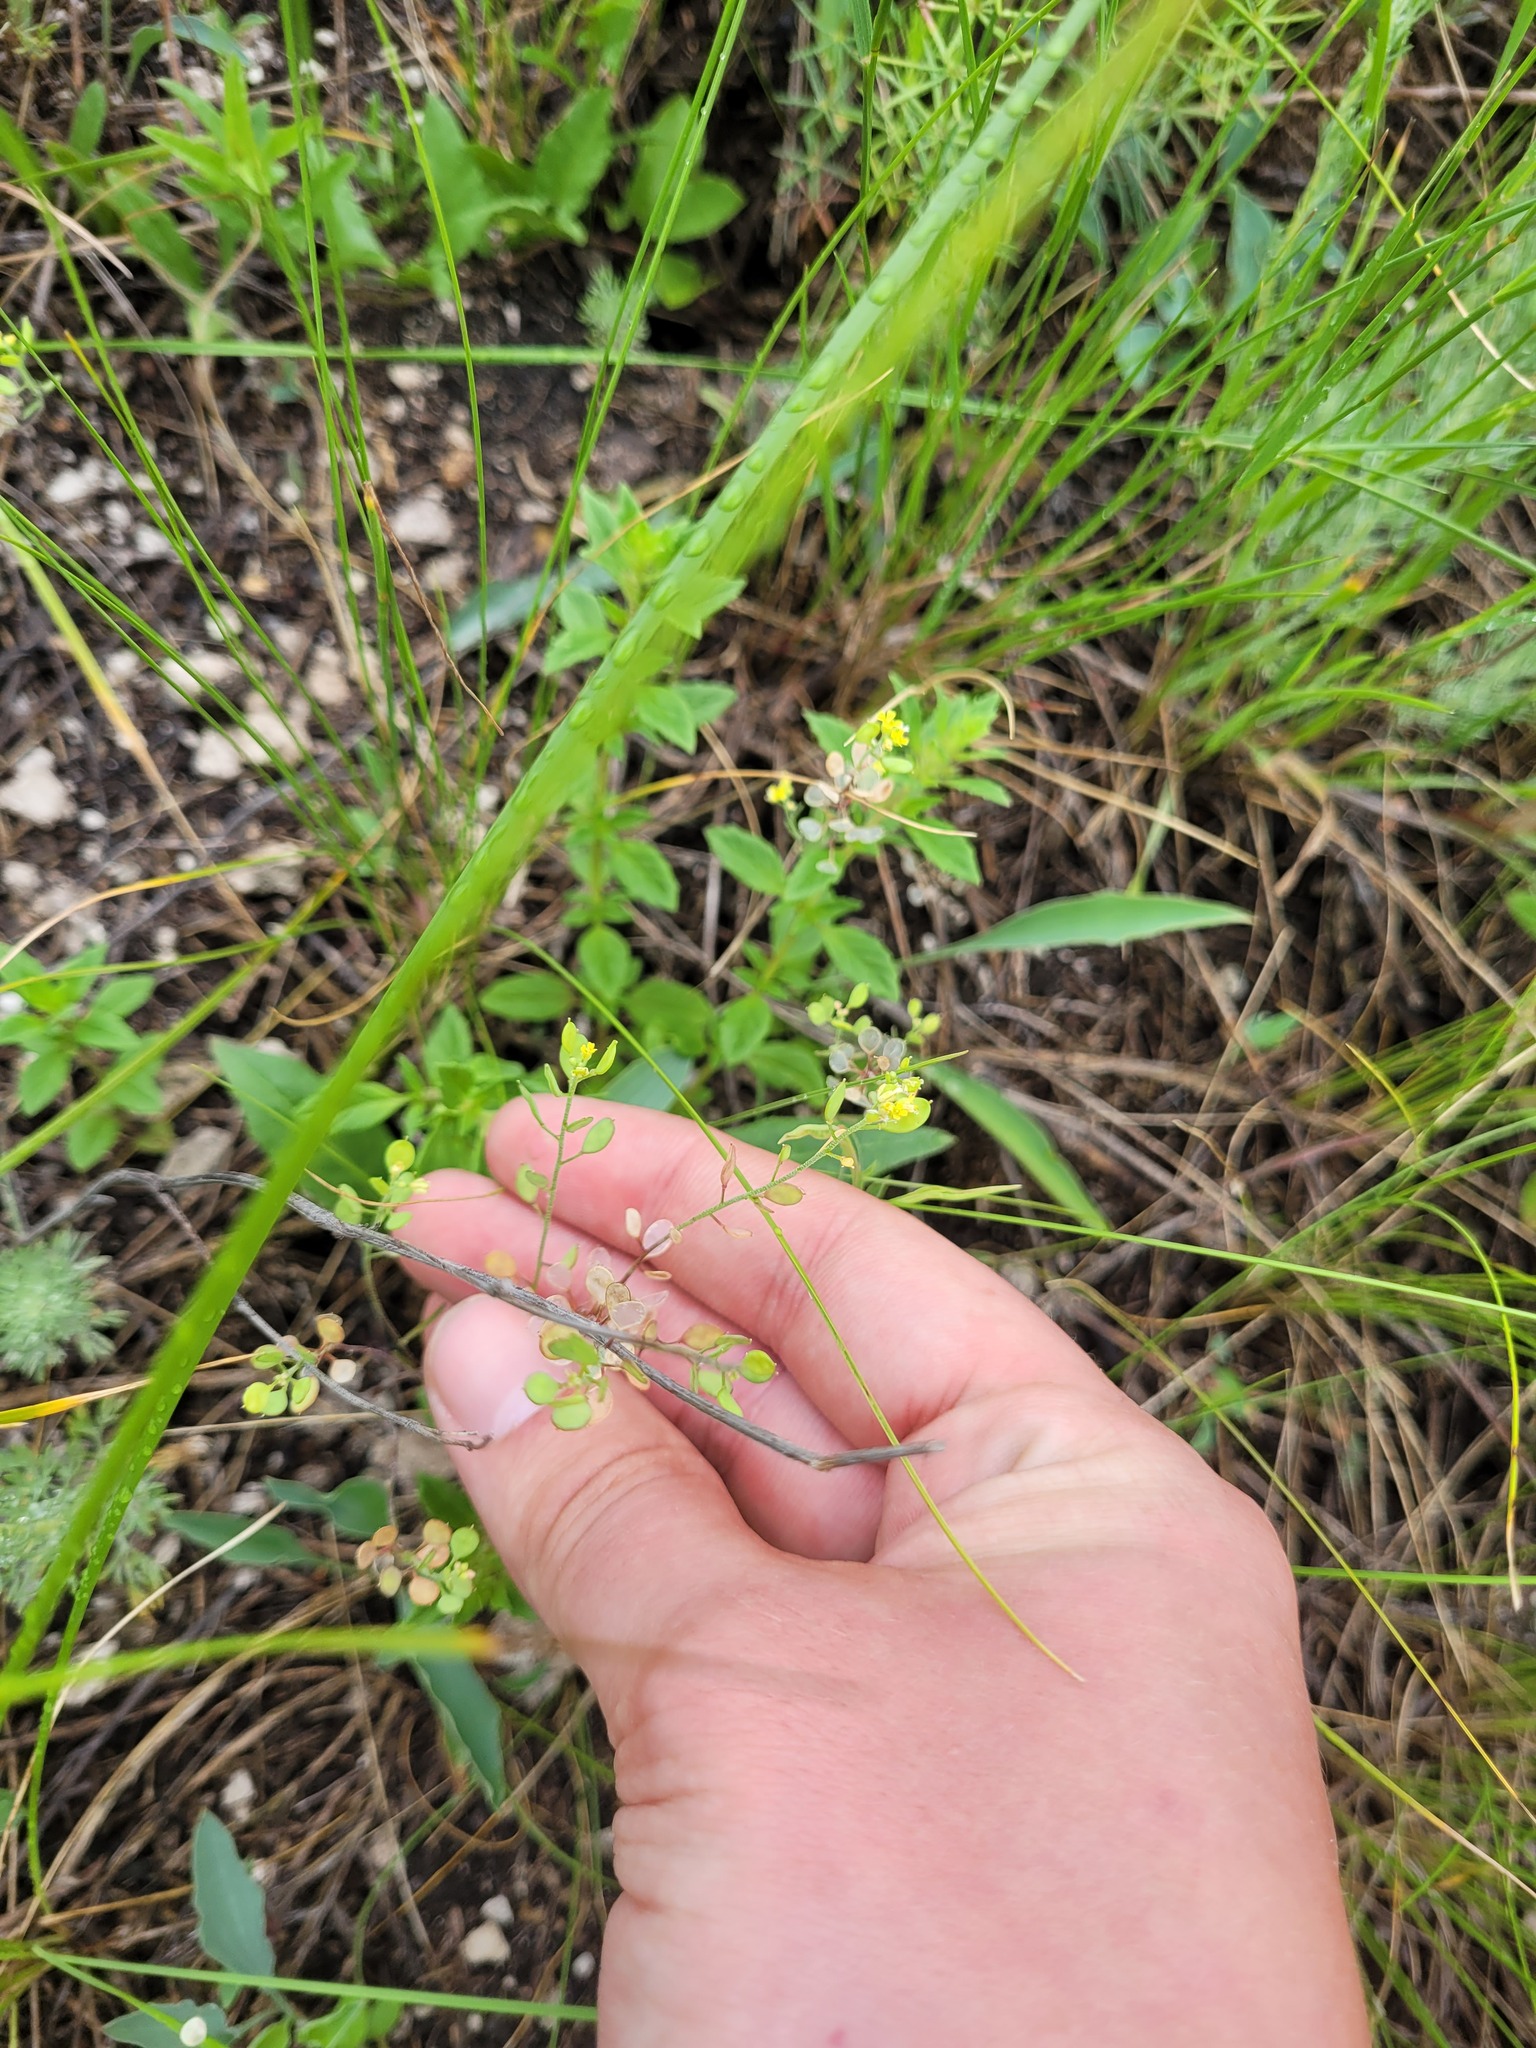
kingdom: Plantae
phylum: Tracheophyta
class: Magnoliopsida
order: Brassicales
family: Brassicaceae
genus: Meniocus
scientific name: Meniocus linifolius
